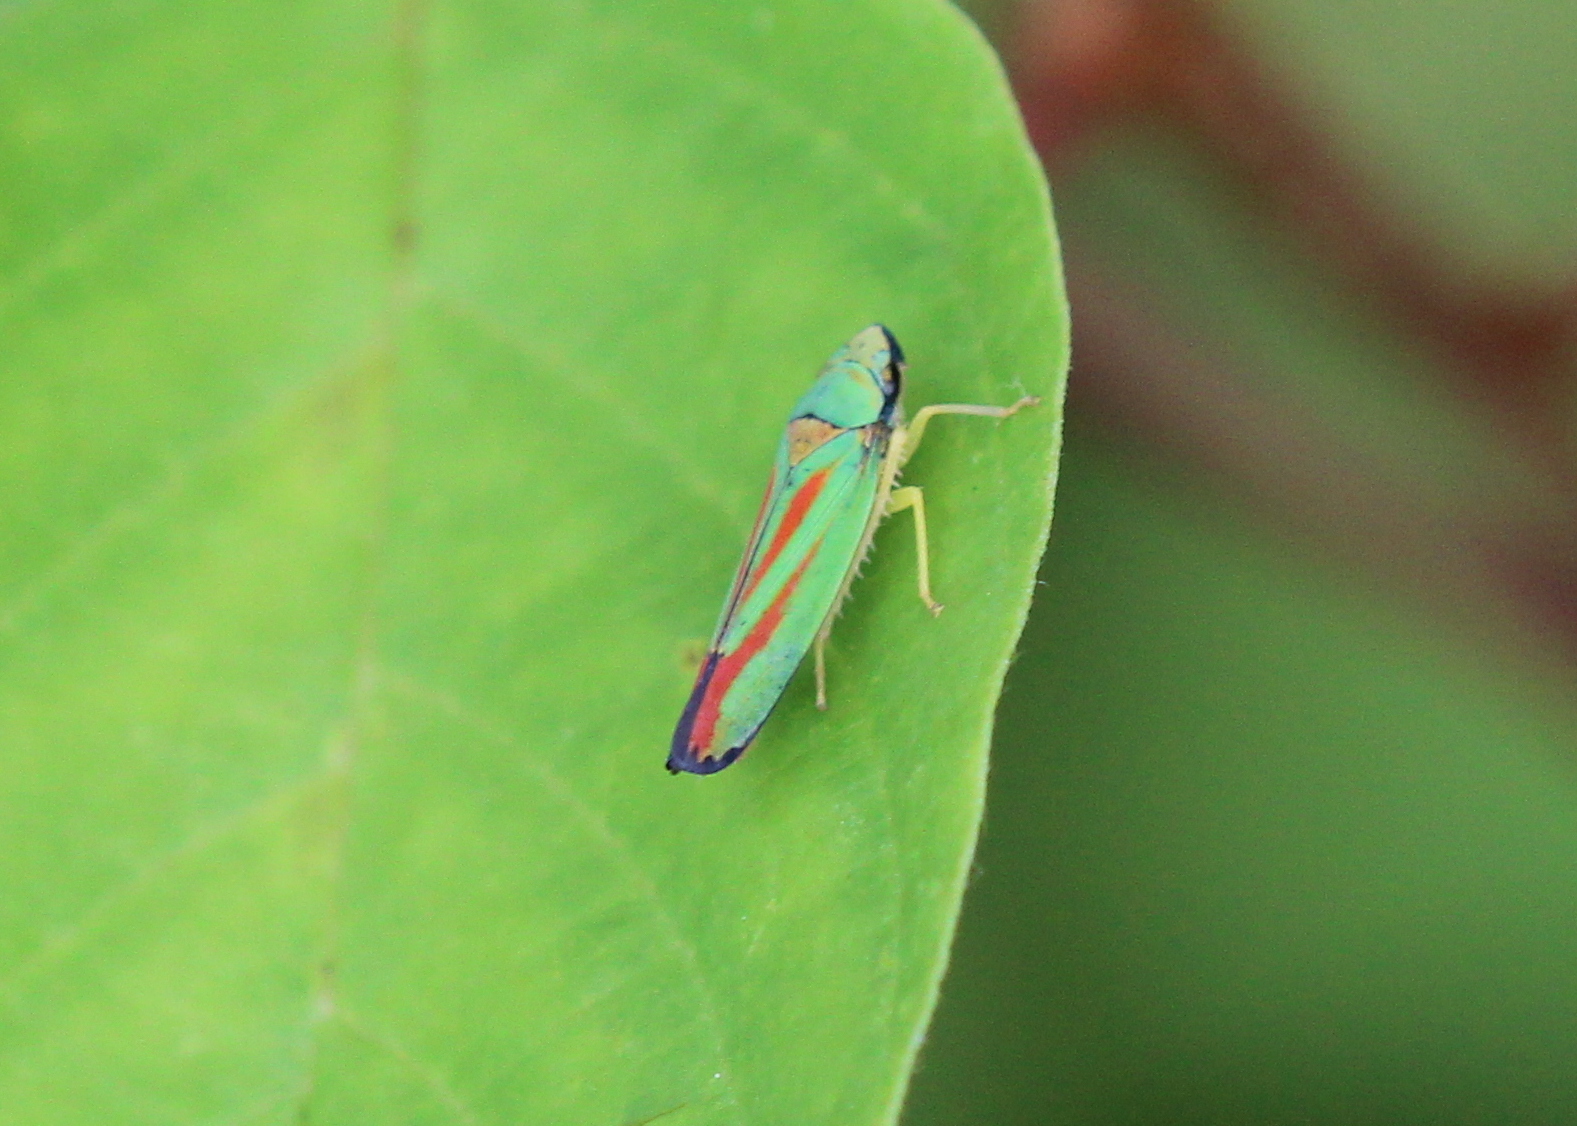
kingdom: Animalia
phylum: Arthropoda
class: Insecta
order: Hemiptera
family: Cicadellidae
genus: Graphocephala
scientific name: Graphocephala fennahi
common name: Rhododendron leafhopper
